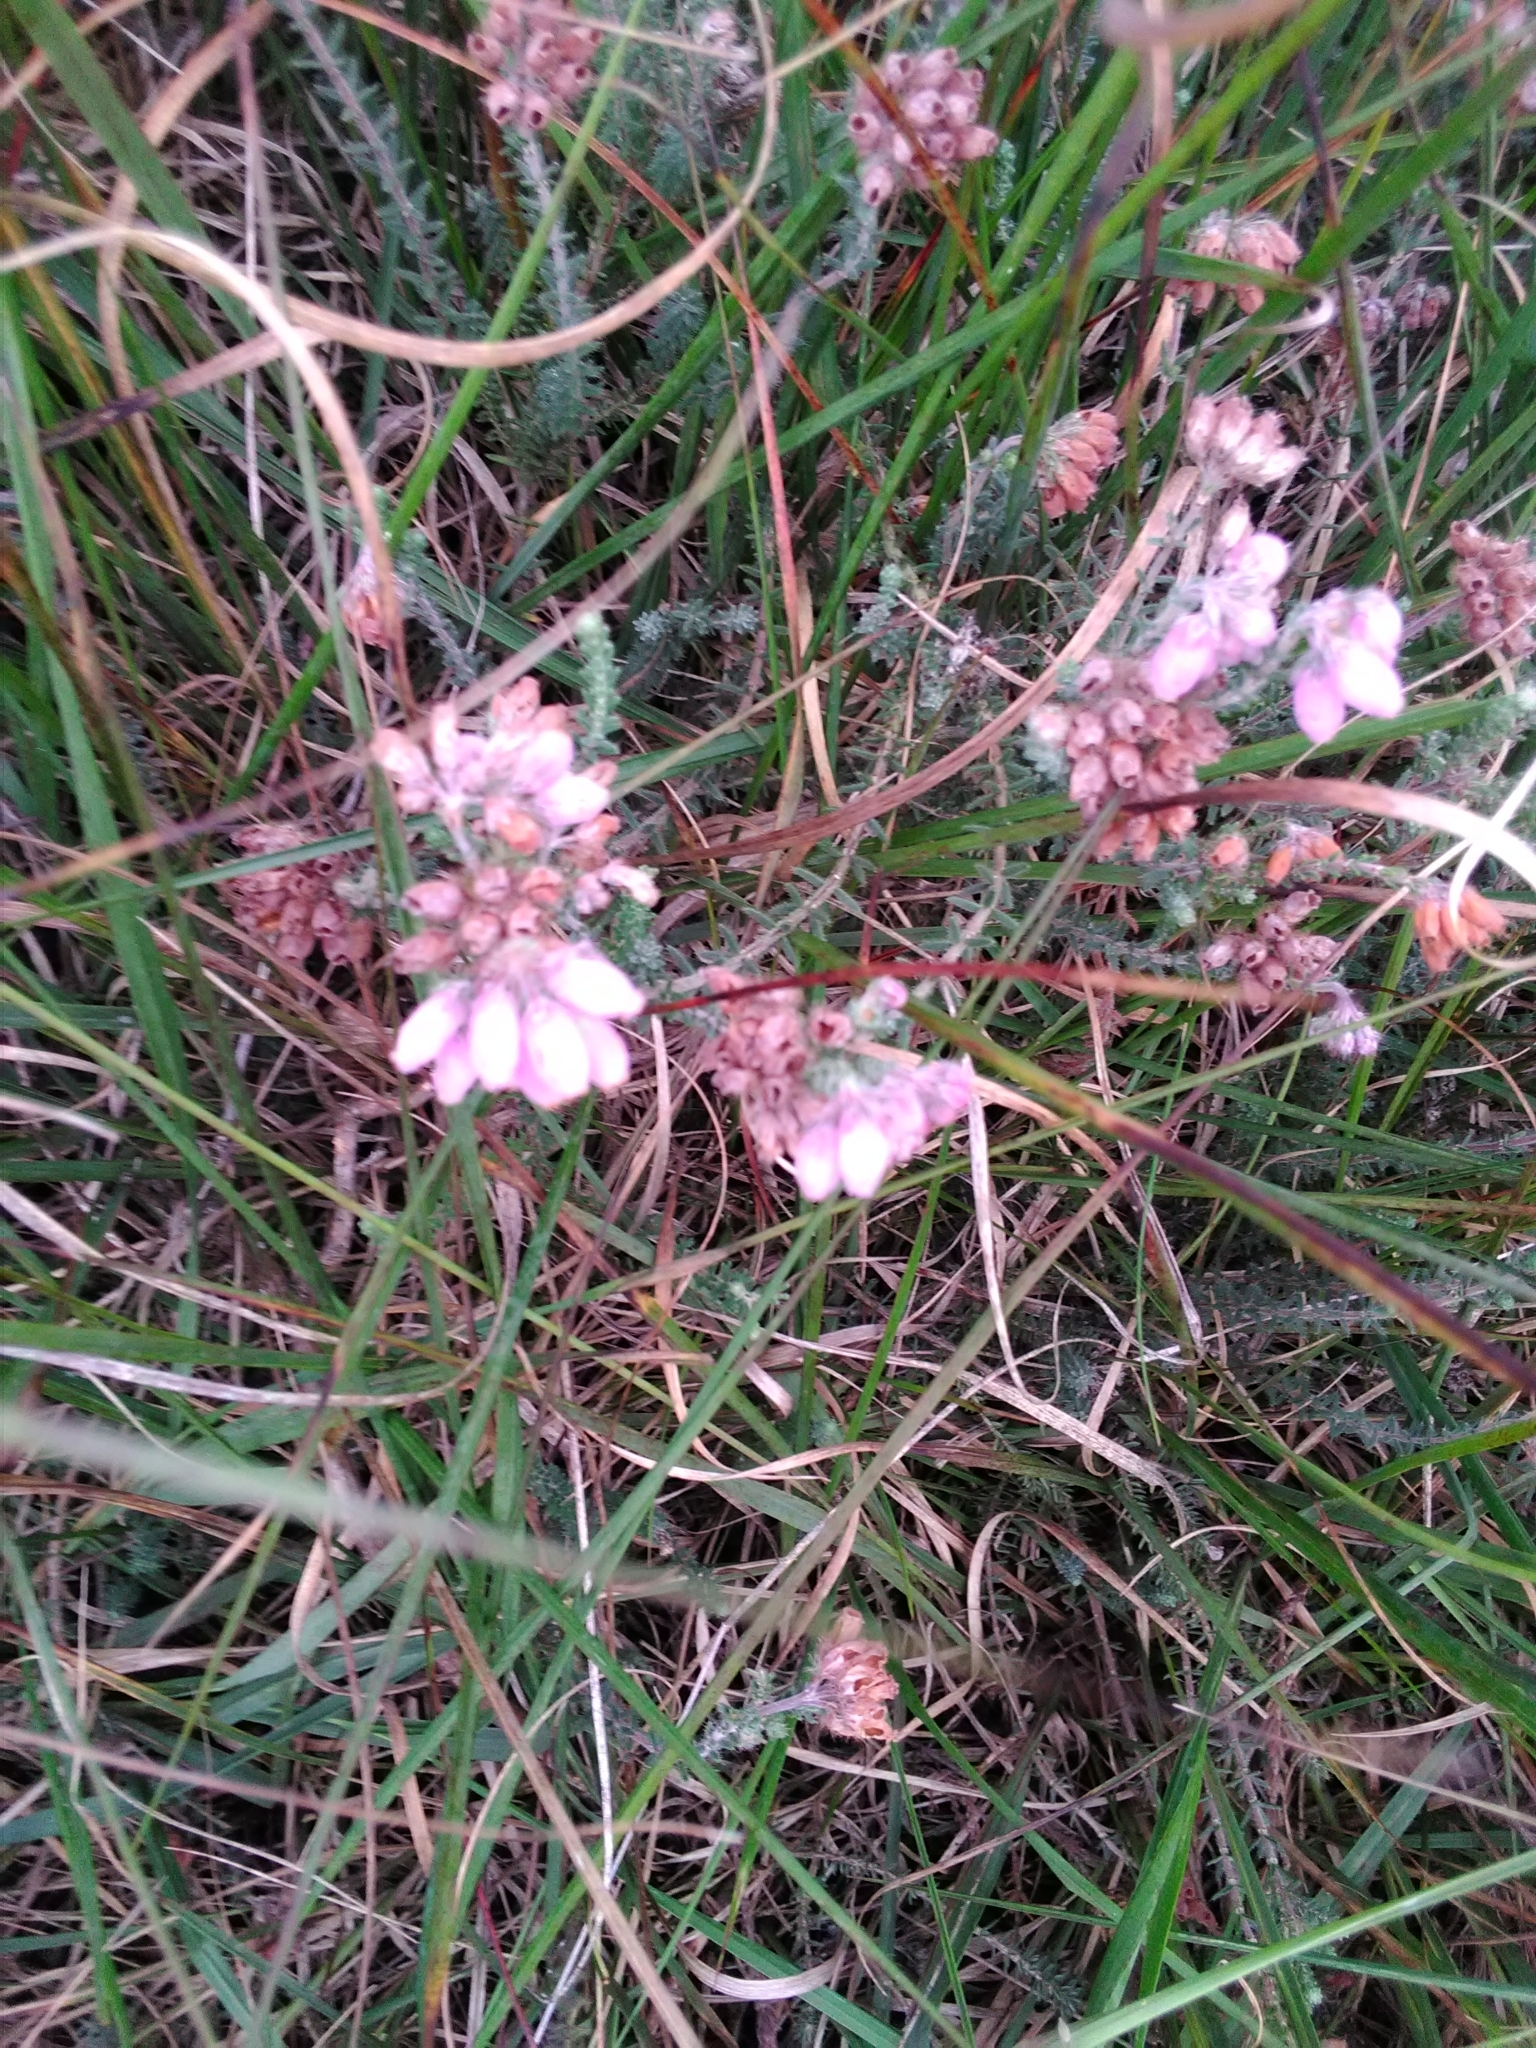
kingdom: Plantae
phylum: Tracheophyta
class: Magnoliopsida
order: Ericales
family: Ericaceae
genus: Erica
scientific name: Erica tetralix
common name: Cross-leaved heath
